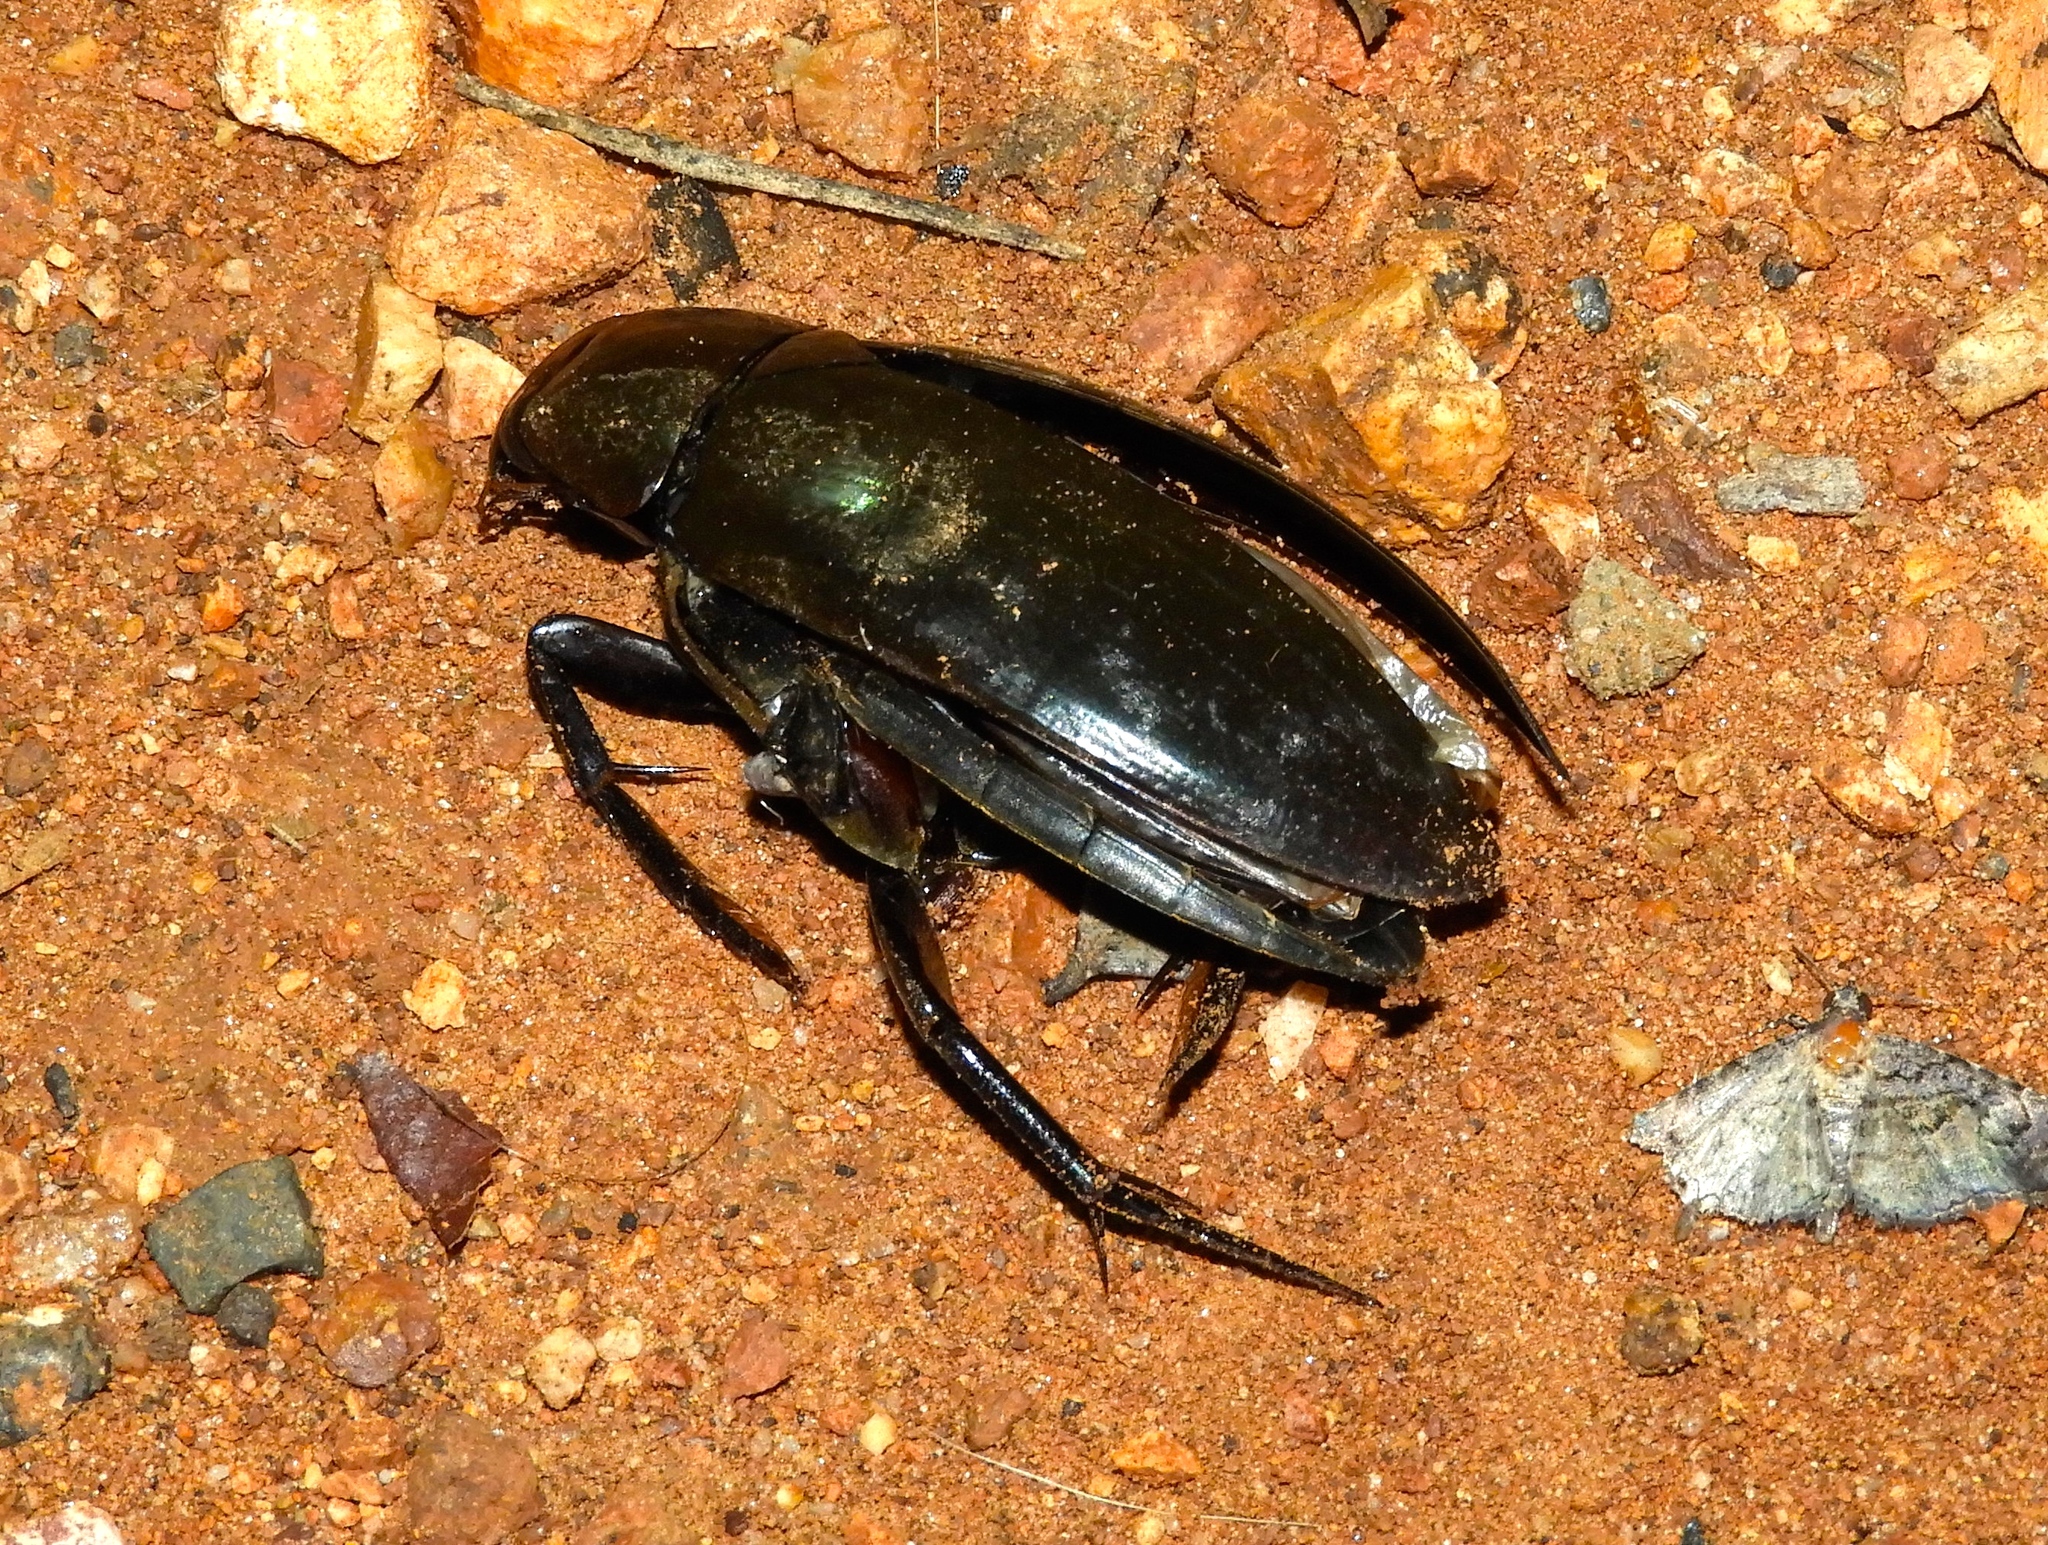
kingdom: Animalia
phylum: Arthropoda
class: Insecta
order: Coleoptera
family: Hydrophilidae
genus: Hydrophilus
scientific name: Hydrophilus
